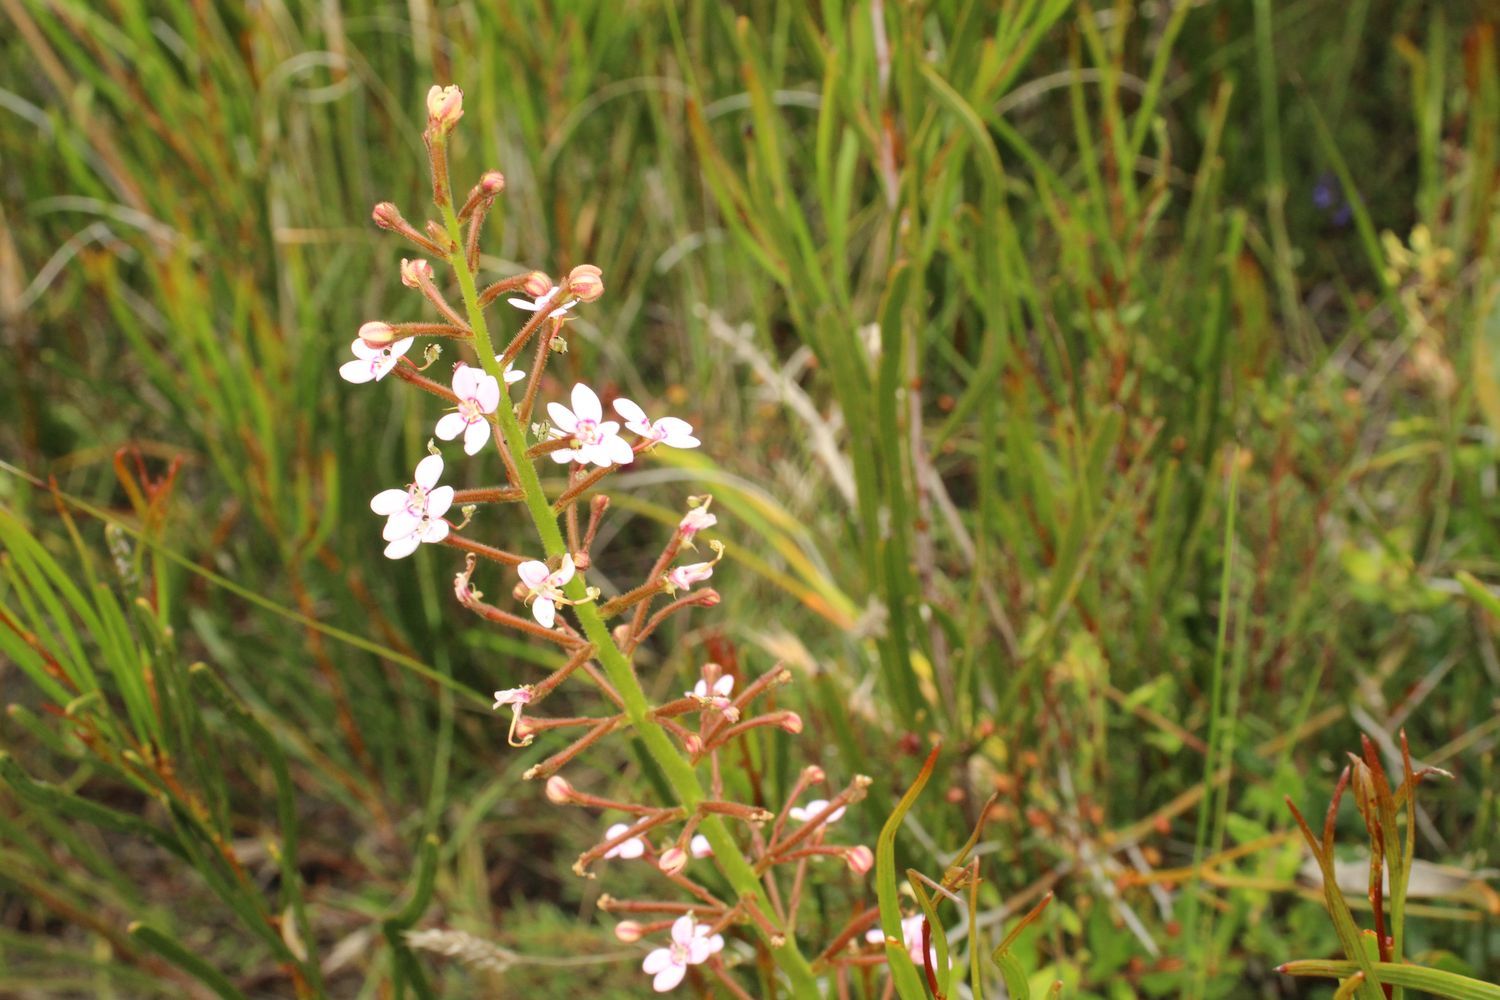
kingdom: Plantae
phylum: Tracheophyta
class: Magnoliopsida
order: Asterales
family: Stylidiaceae
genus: Stylidium
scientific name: Stylidium crassifolium
